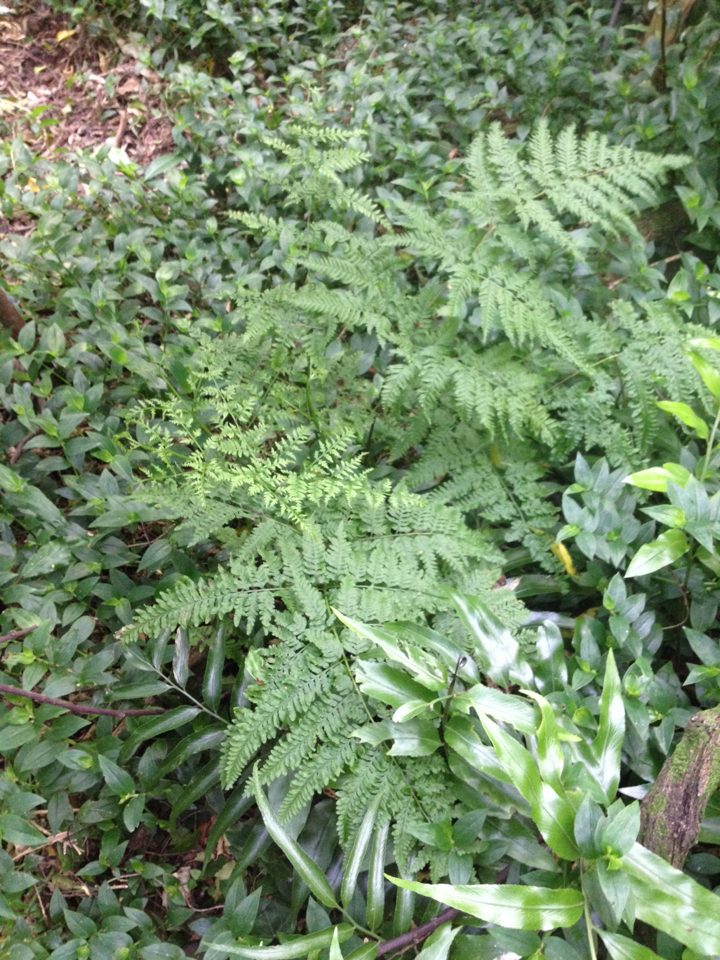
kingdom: Plantae
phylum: Tracheophyta
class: Polypodiopsida
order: Polypodiales
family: Pteridaceae
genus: Pteris
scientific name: Pteris tremula
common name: Australian brake
